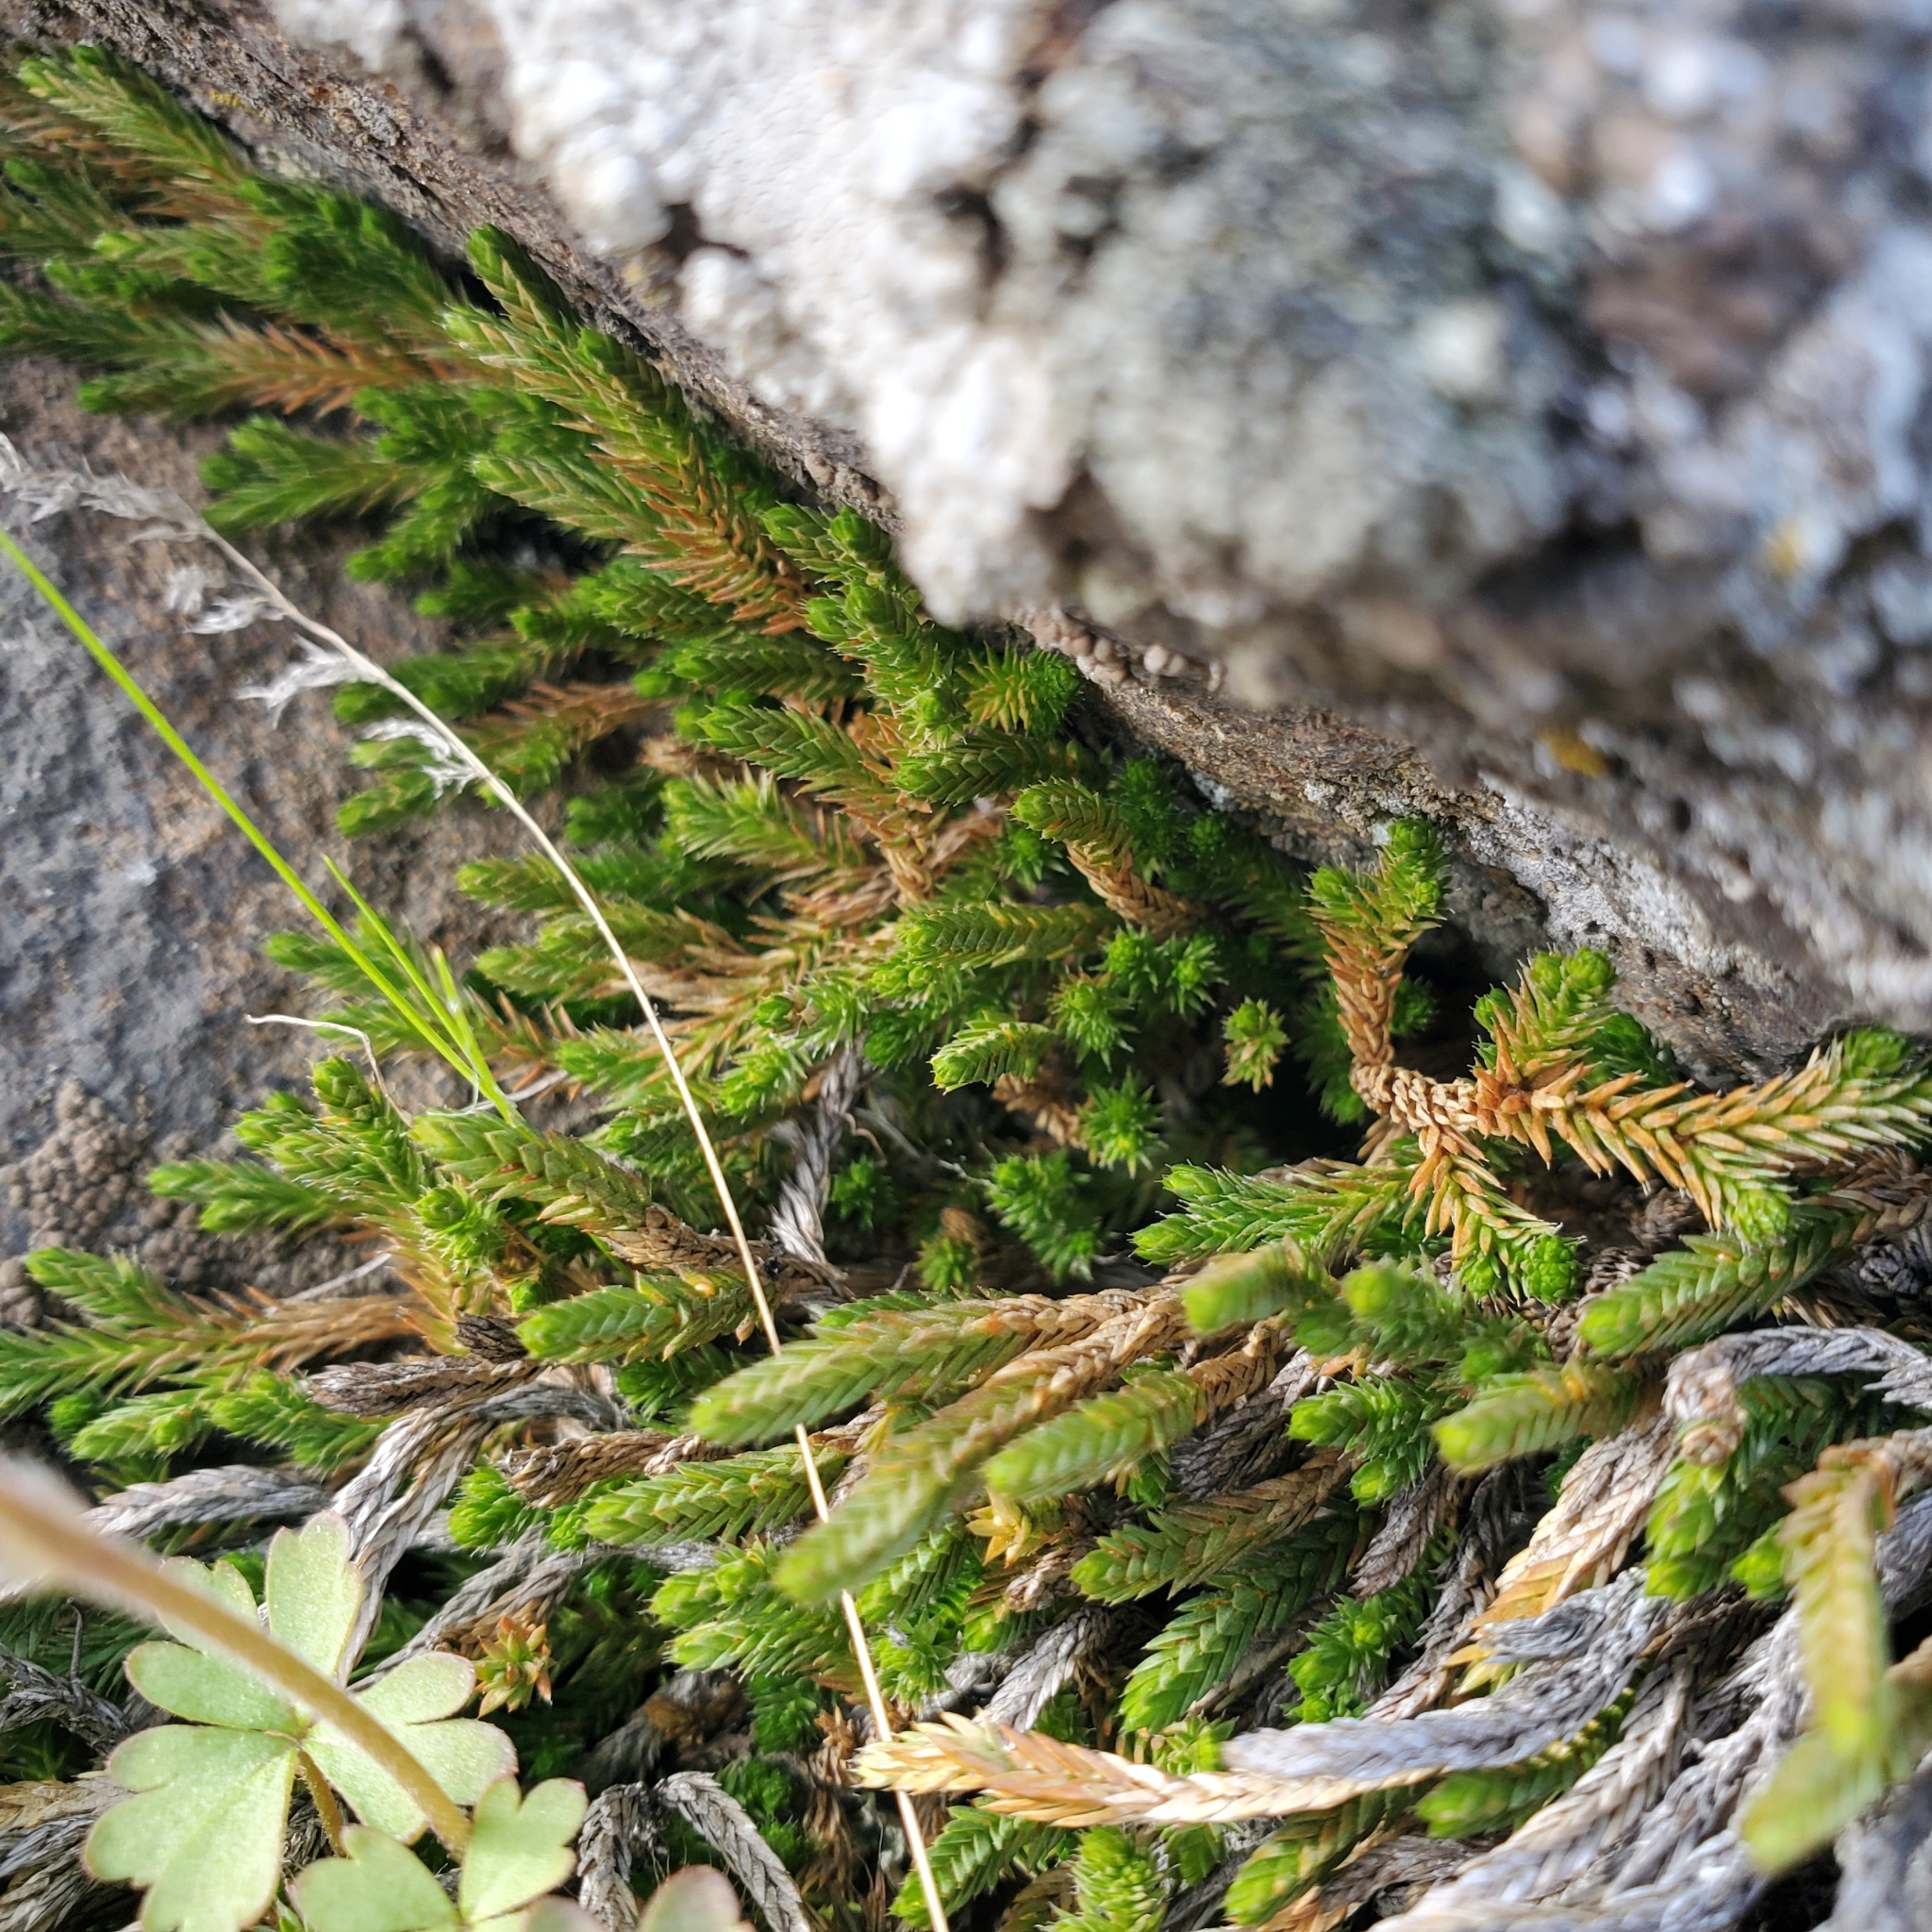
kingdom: Plantae
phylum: Tracheophyta
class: Lycopodiopsida
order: Selaginellales
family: Selaginellaceae
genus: Selaginella
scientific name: Selaginella wallacei
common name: Wallace's selaginella
